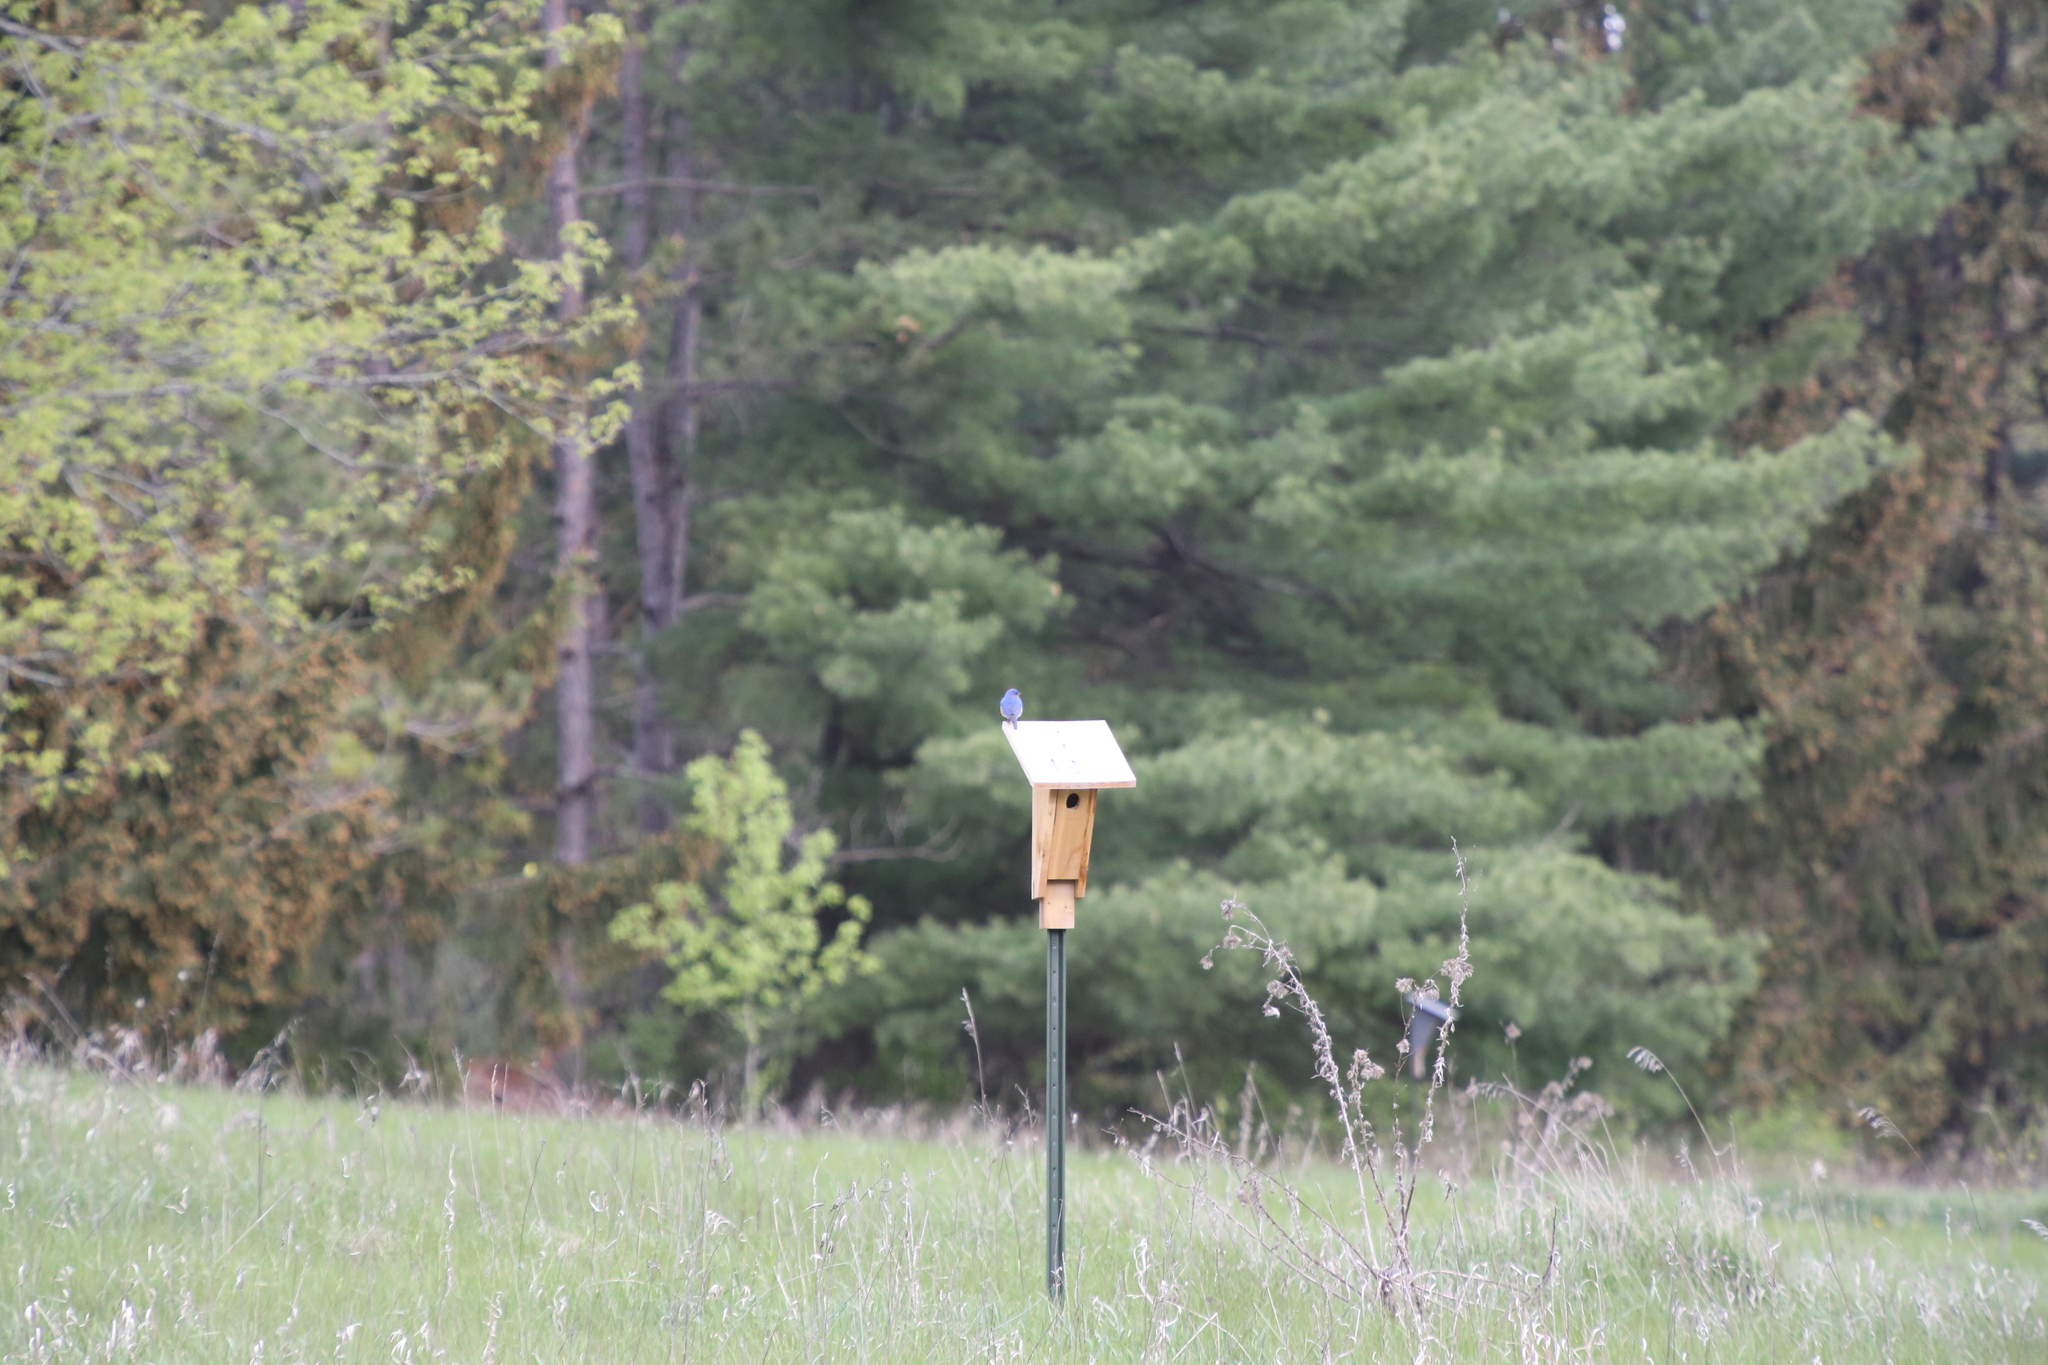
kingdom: Animalia
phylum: Chordata
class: Aves
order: Passeriformes
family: Turdidae
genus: Sialia
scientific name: Sialia sialis
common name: Eastern bluebird
